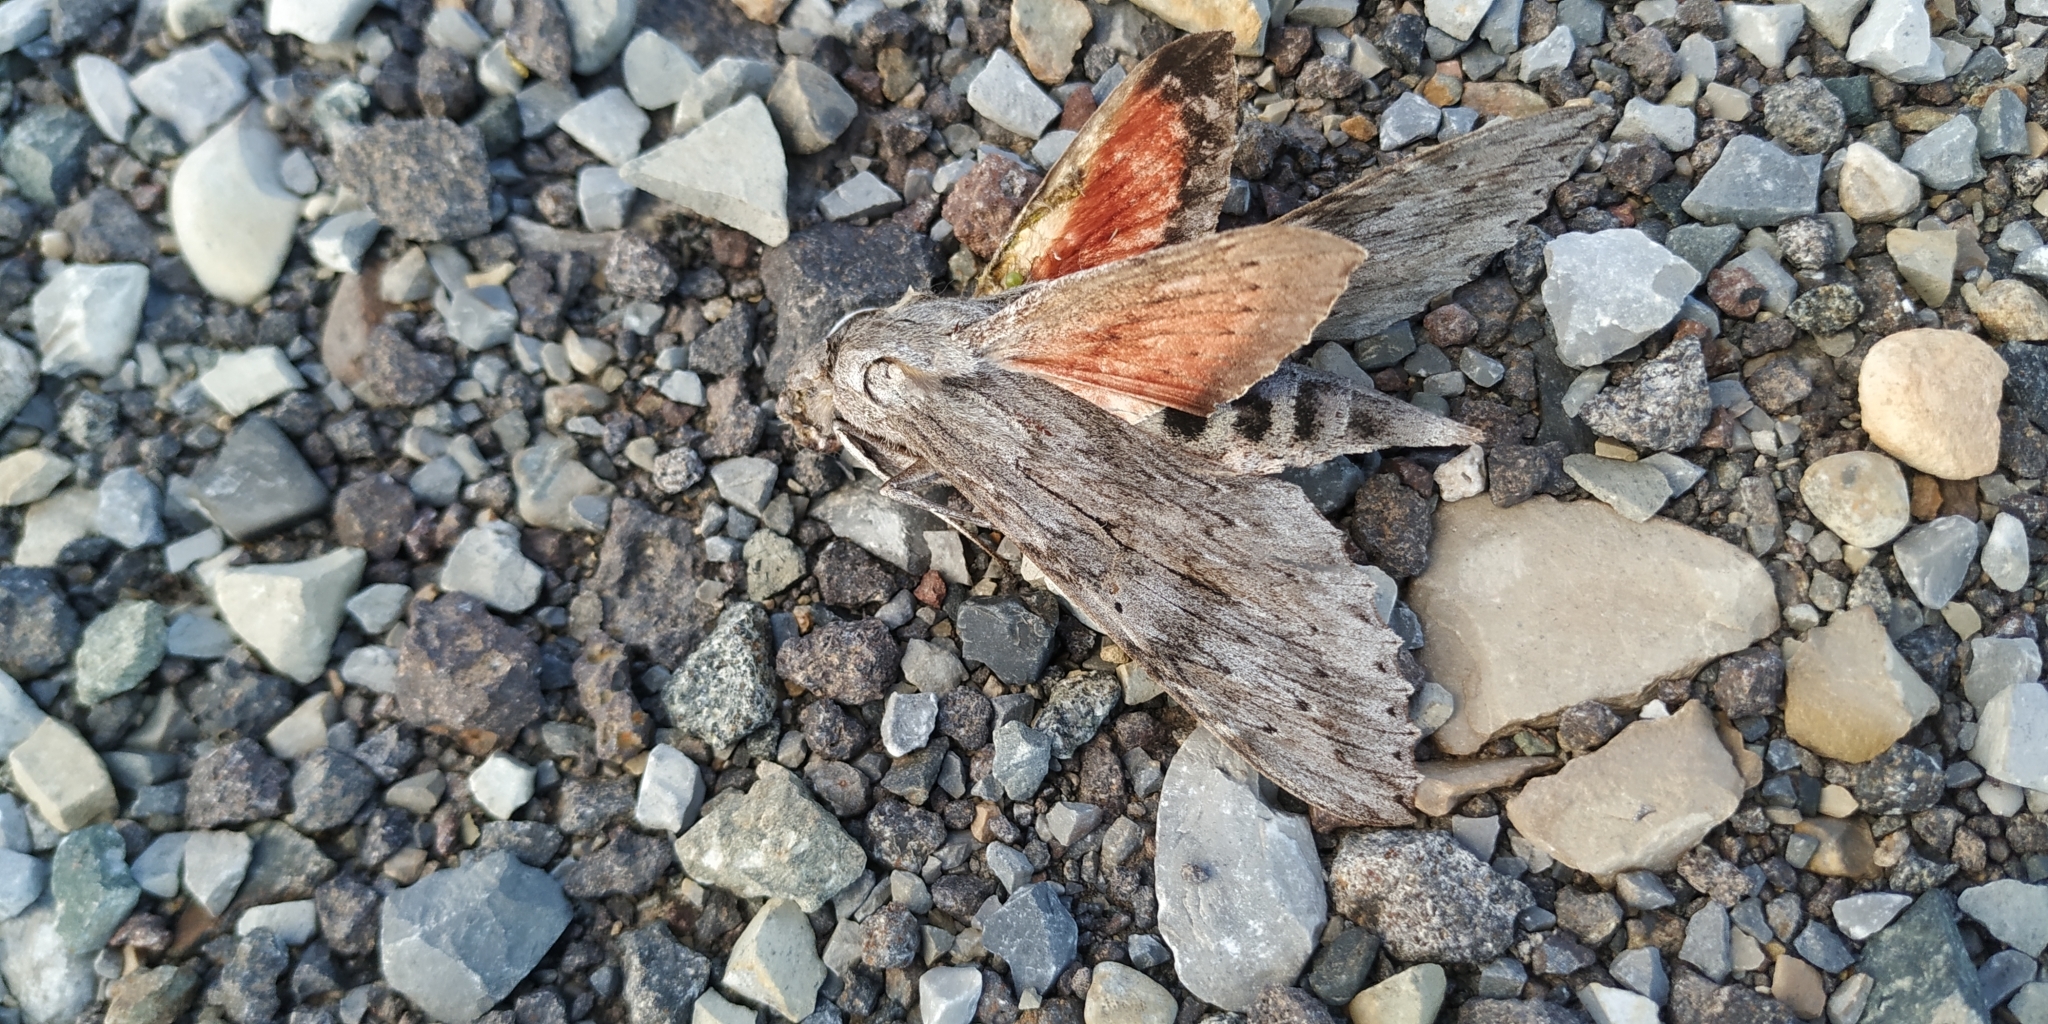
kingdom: Animalia
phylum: Arthropoda
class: Insecta
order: Lepidoptera
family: Sphingidae
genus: Erinnyis
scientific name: Erinnyis ello
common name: Ello sphinx
